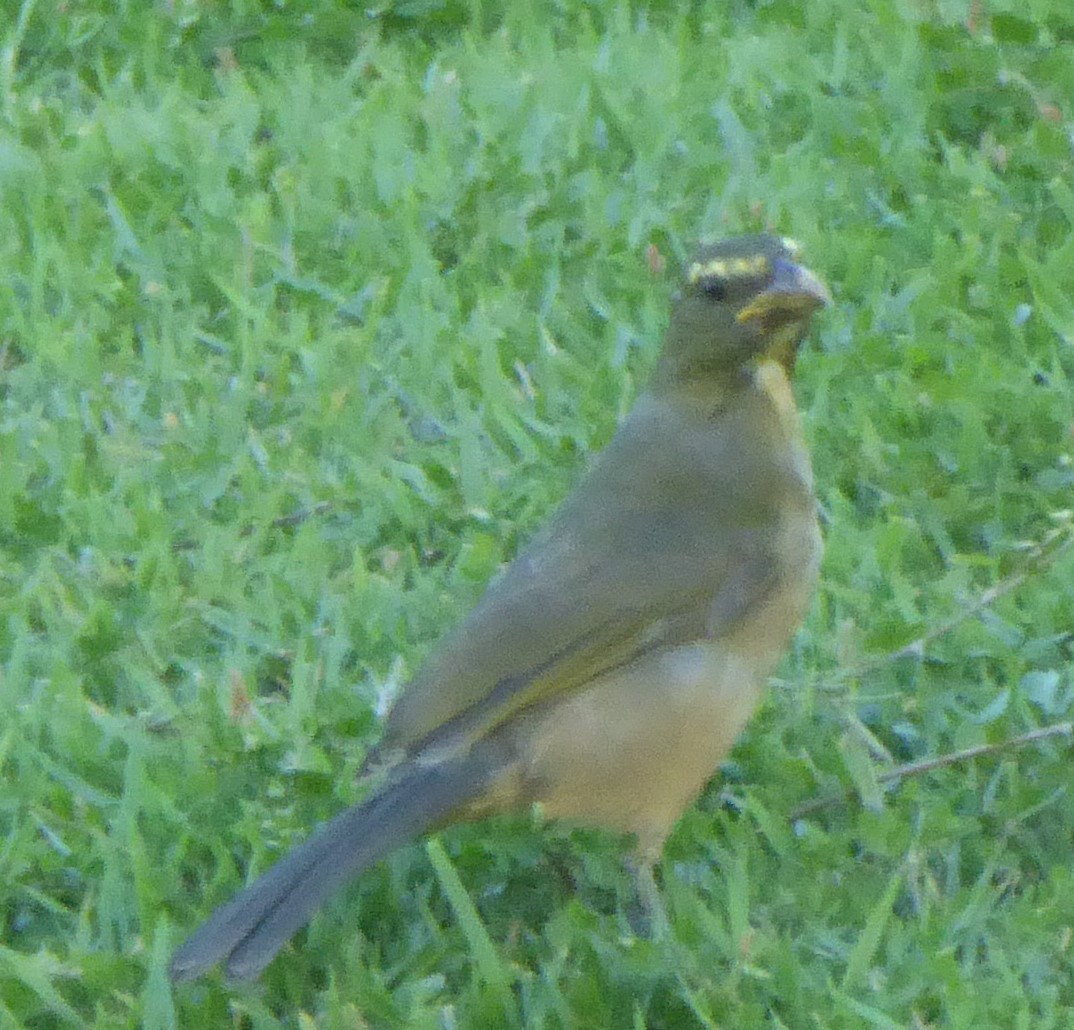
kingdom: Animalia
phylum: Chordata
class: Aves
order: Passeriformes
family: Thraupidae
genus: Saltator
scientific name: Saltator coerulescens
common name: Grayish saltator
